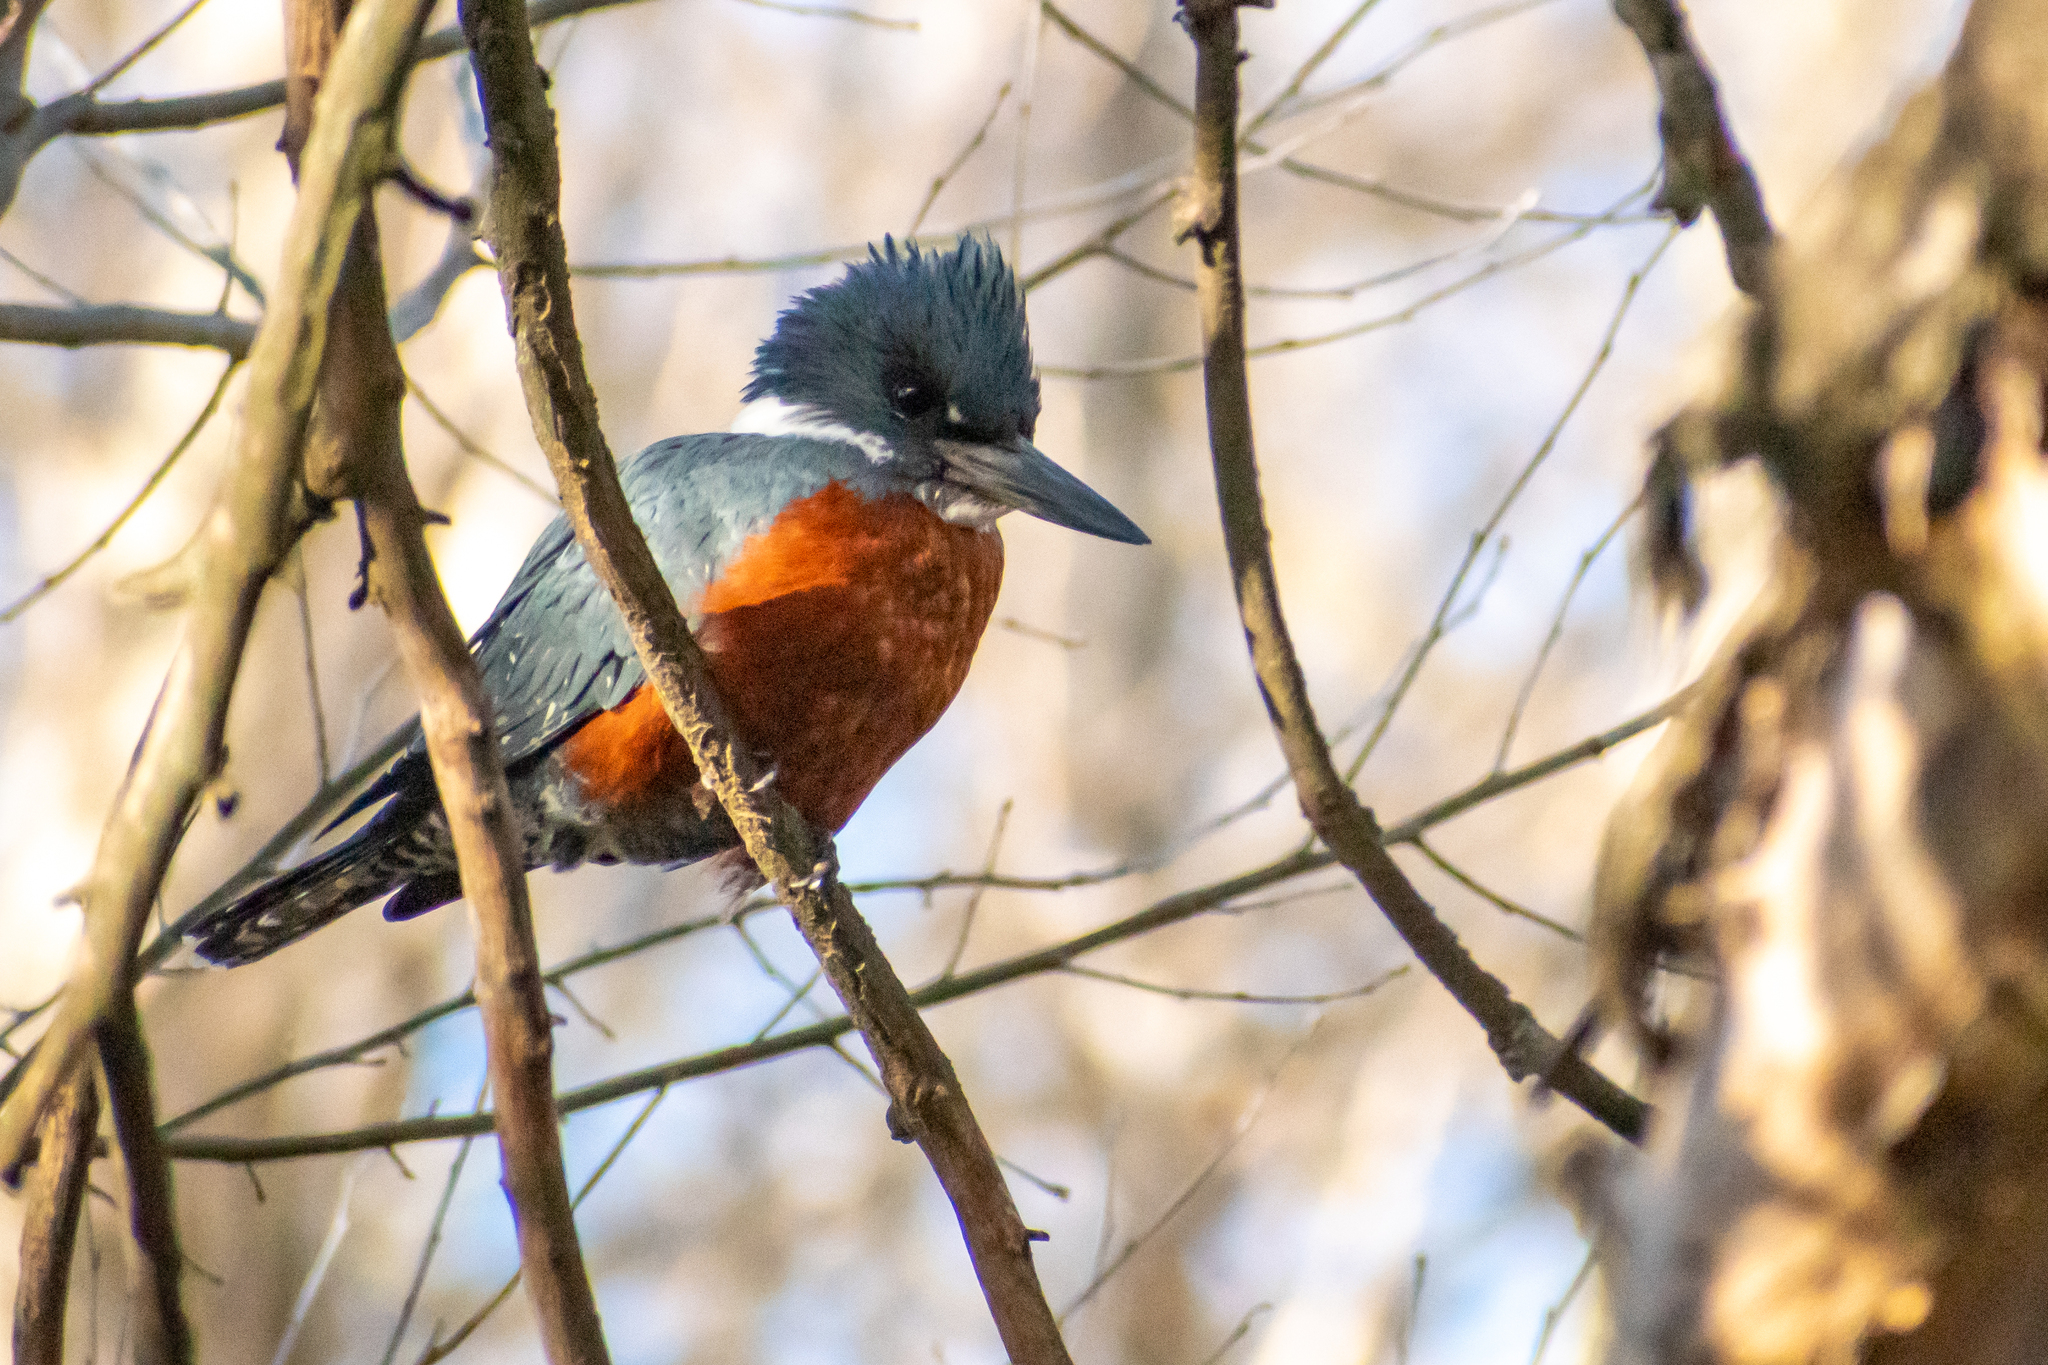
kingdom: Animalia
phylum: Chordata
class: Aves
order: Coraciiformes
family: Alcedinidae
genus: Megaceryle
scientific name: Megaceryle torquata
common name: Ringed kingfisher
